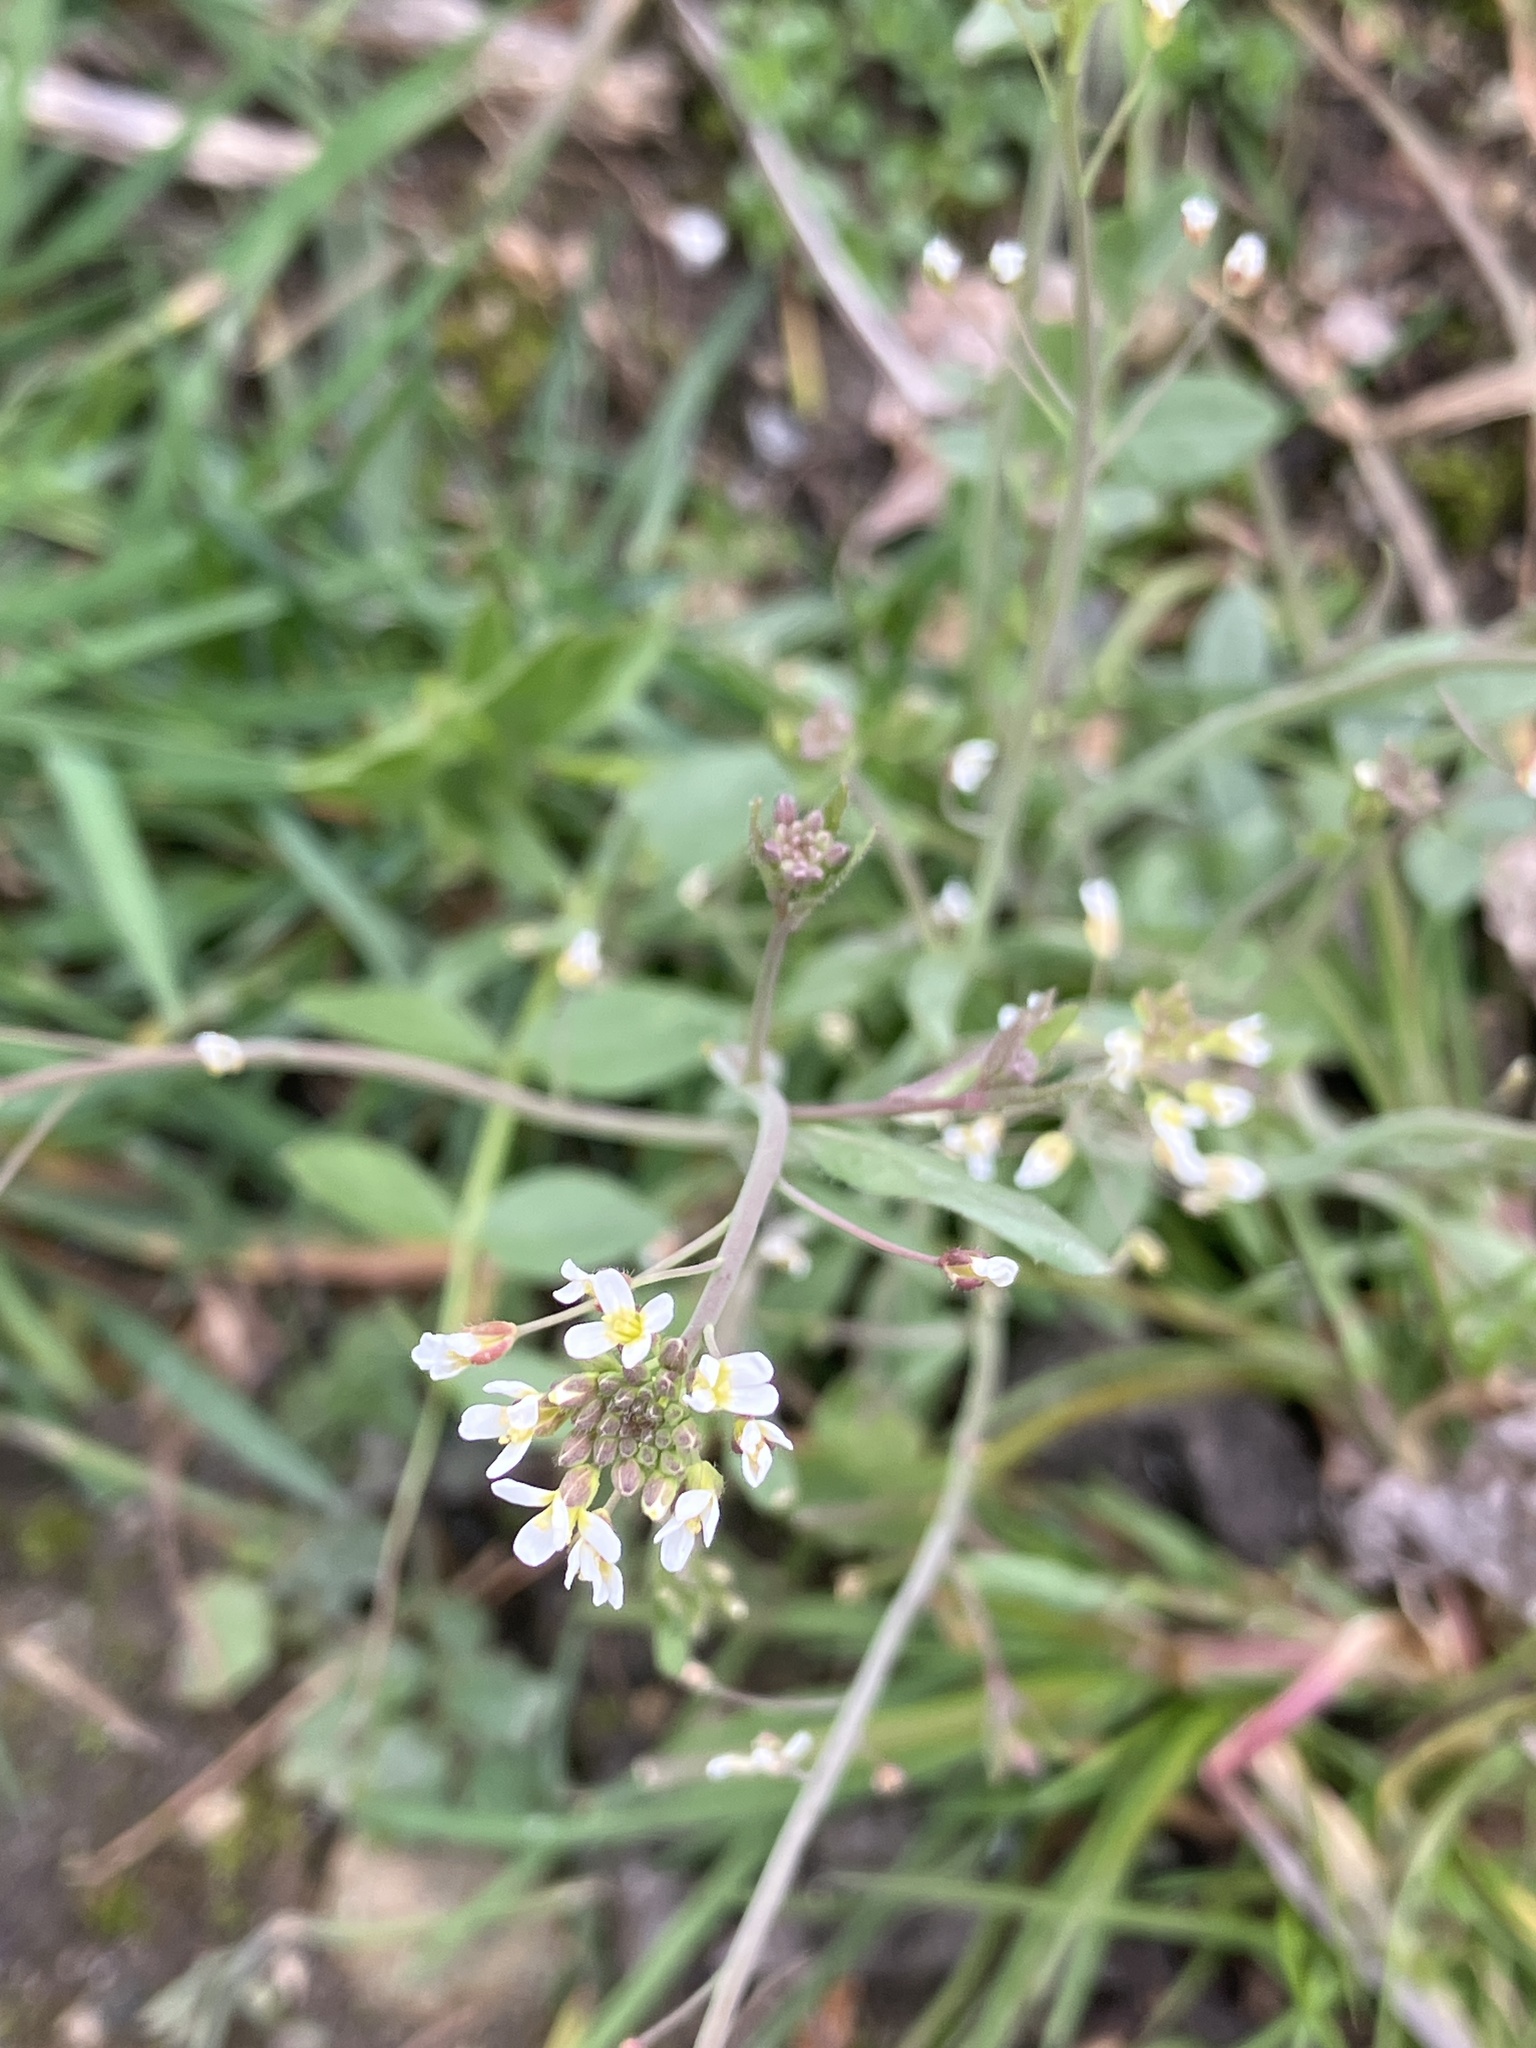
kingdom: Plantae
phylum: Tracheophyta
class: Magnoliopsida
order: Brassicales
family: Brassicaceae
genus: Capsella
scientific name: Capsella bursa-pastoris
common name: Shepherd's purse
